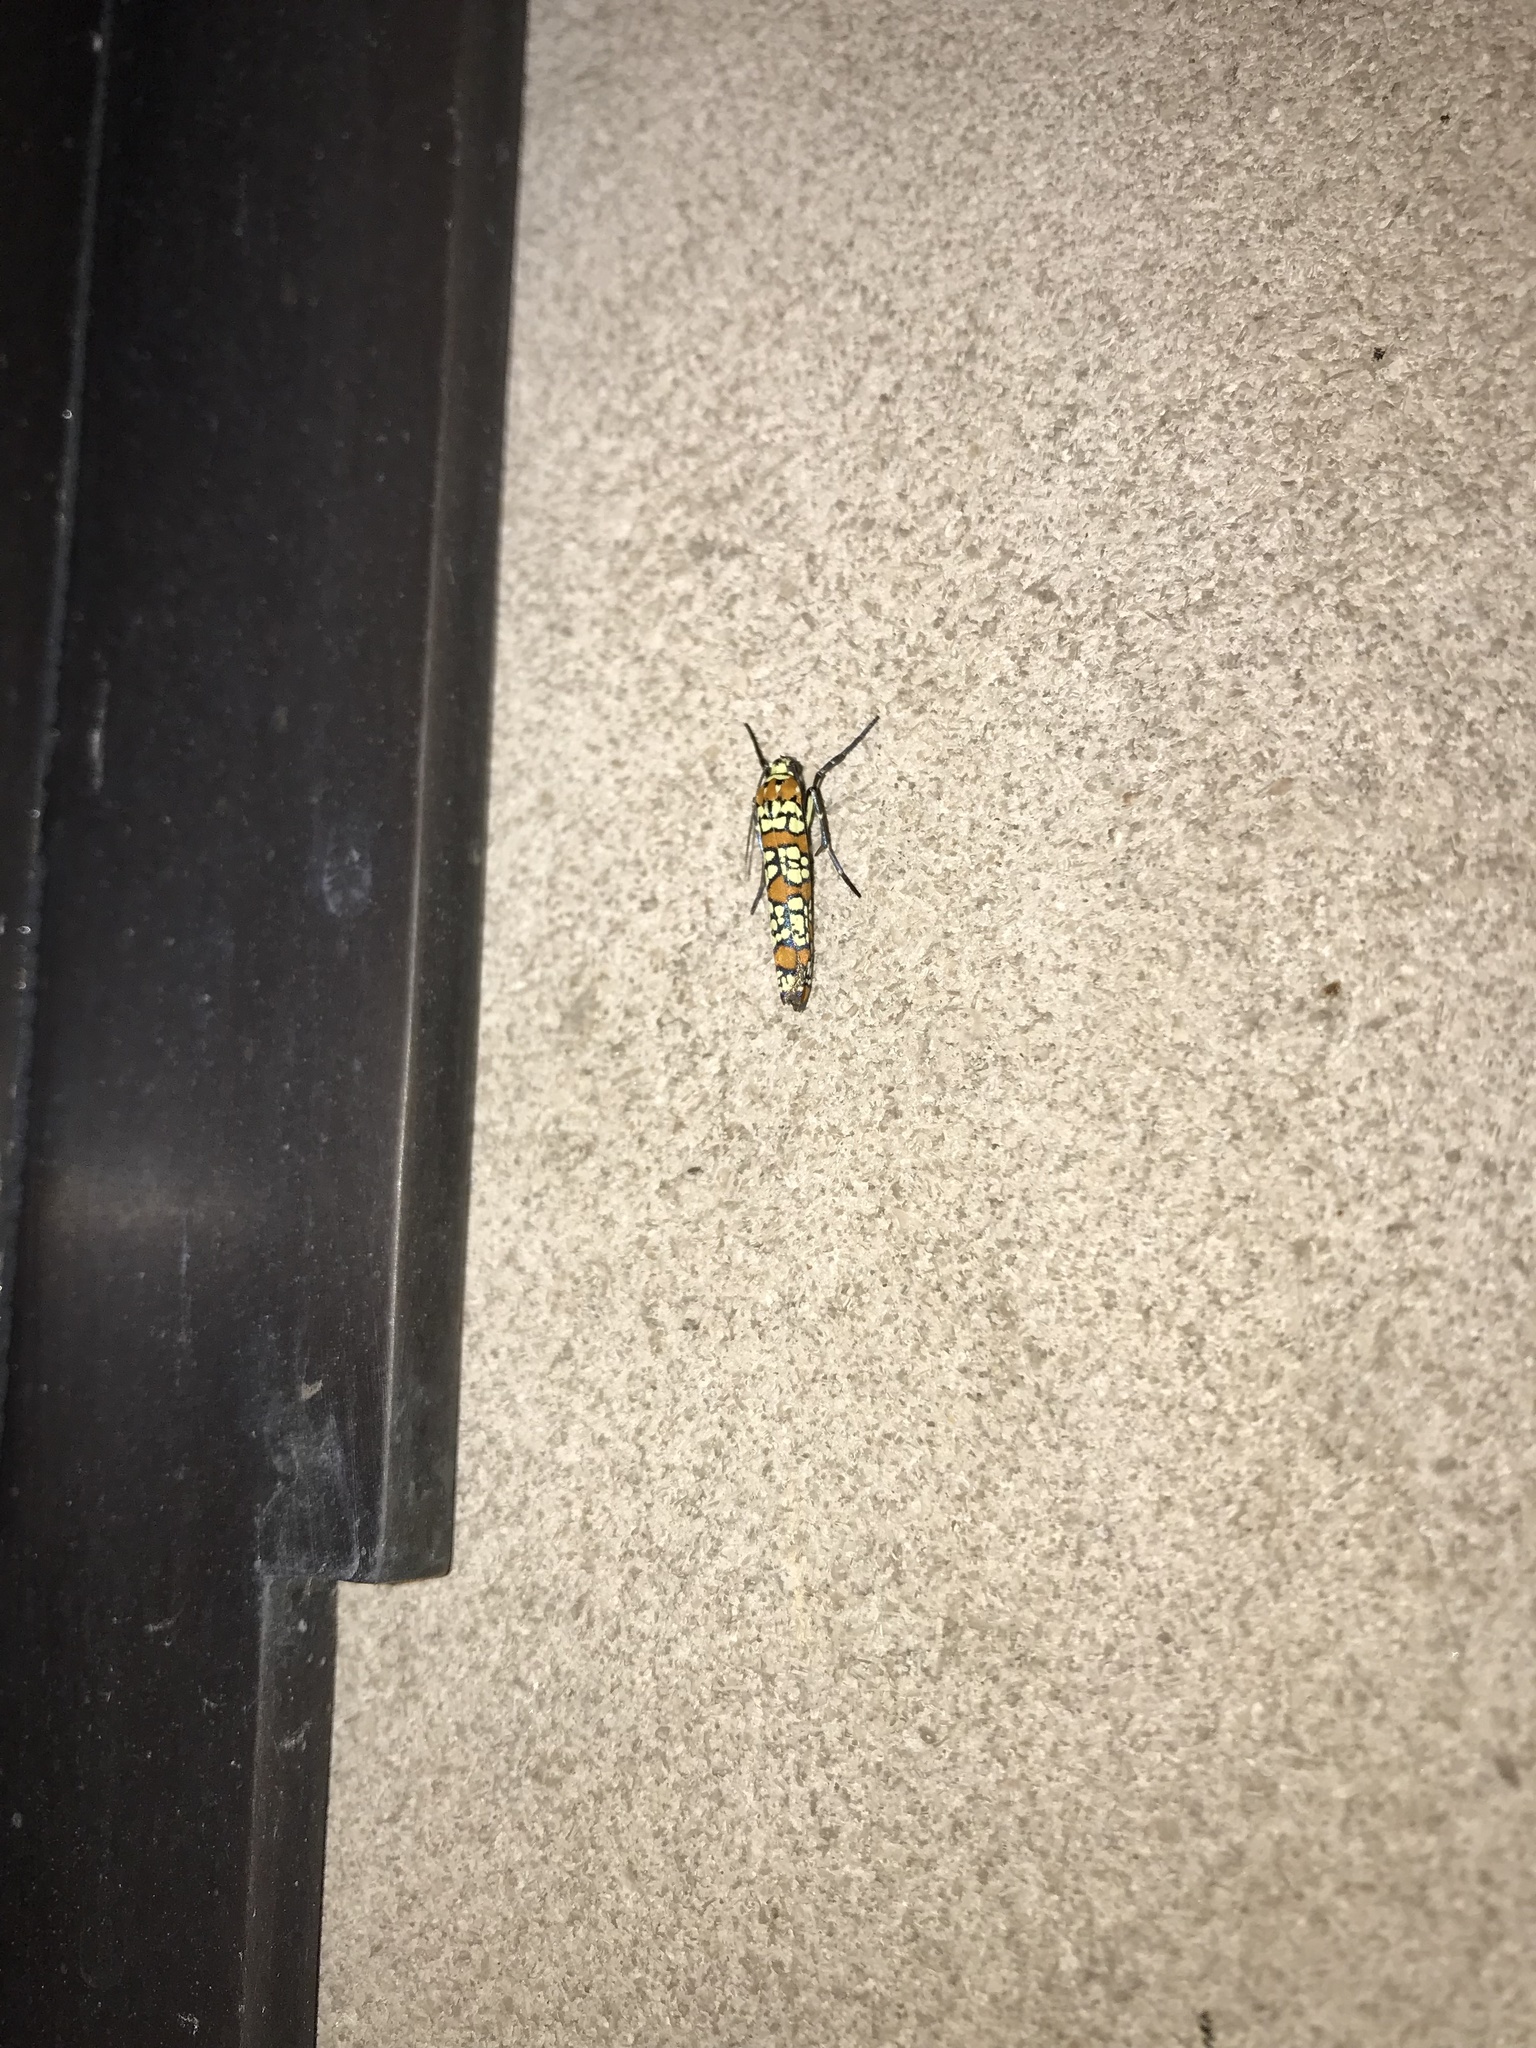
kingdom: Animalia
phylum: Arthropoda
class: Insecta
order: Lepidoptera
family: Attevidae
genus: Atteva
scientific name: Atteva punctella
